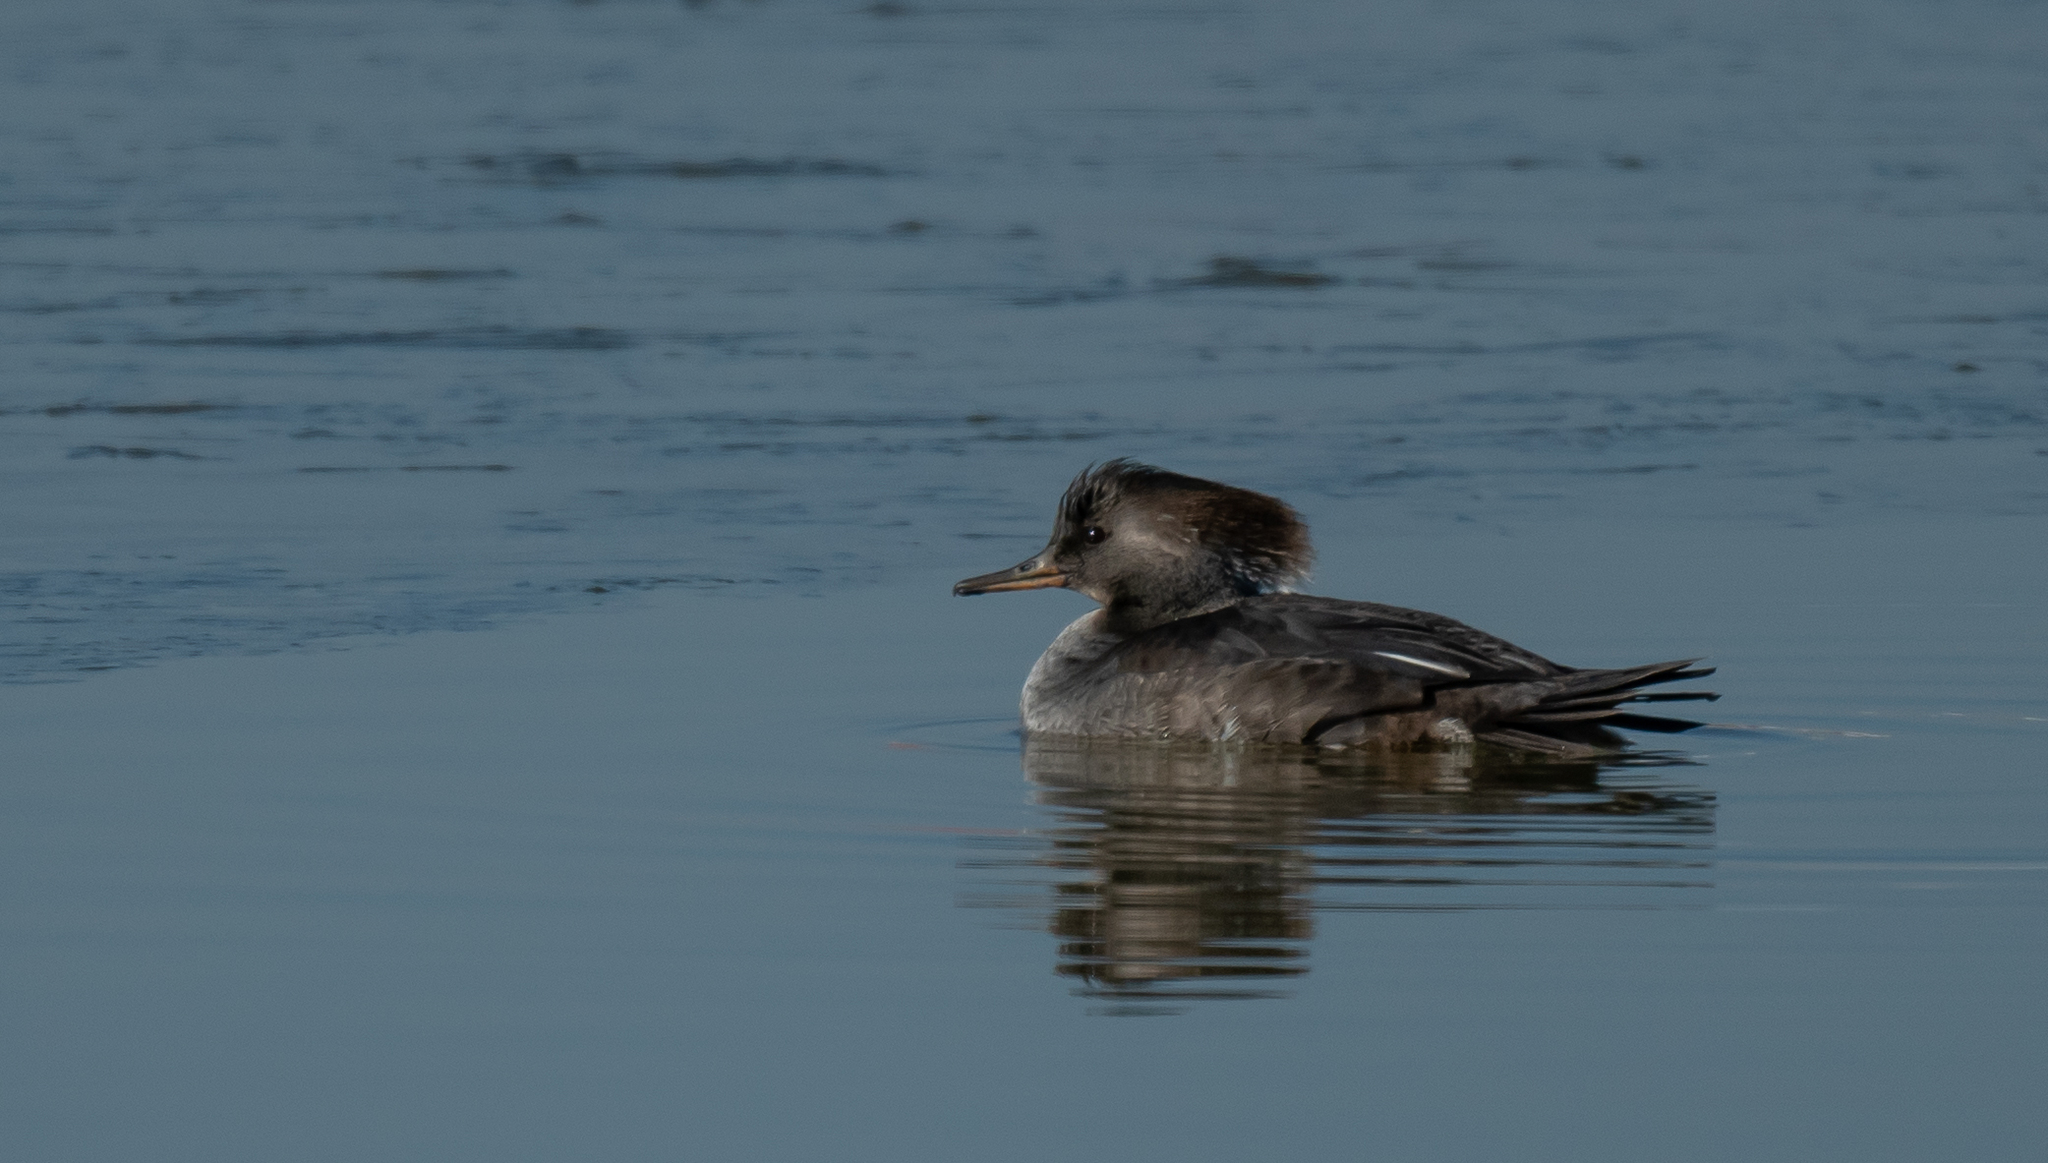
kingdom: Animalia
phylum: Chordata
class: Aves
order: Anseriformes
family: Anatidae
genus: Lophodytes
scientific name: Lophodytes cucullatus
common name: Hooded merganser
